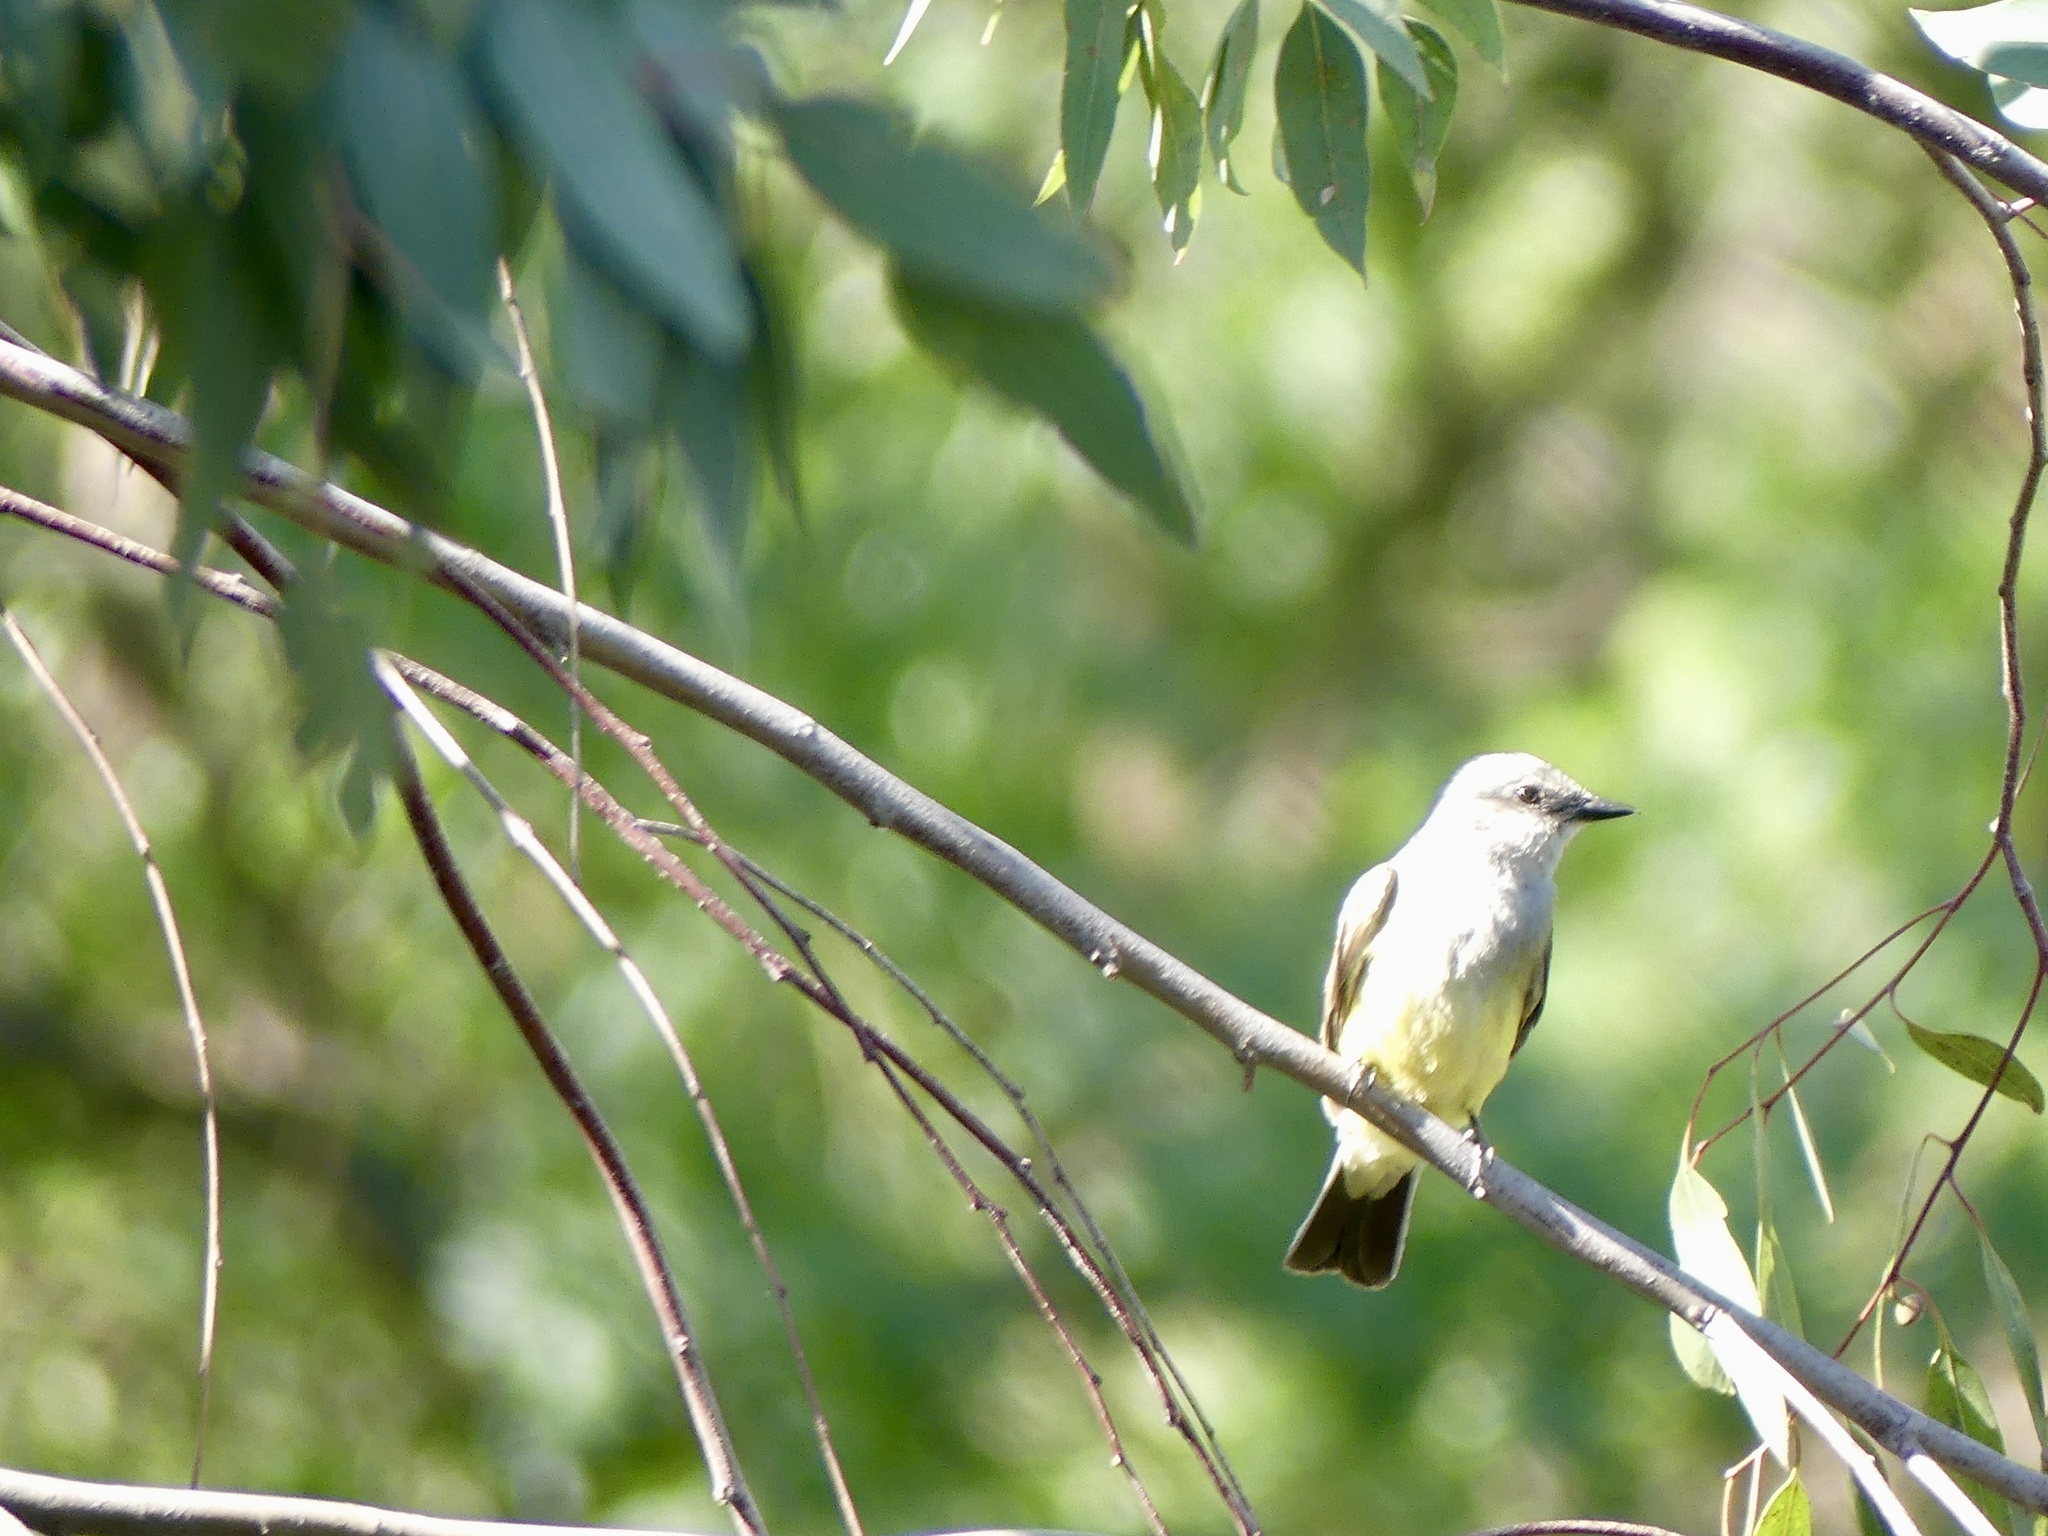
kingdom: Animalia
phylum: Chordata
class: Aves
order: Passeriformes
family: Tyrannidae
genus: Tyrannus
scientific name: Tyrannus verticalis
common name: Western kingbird
